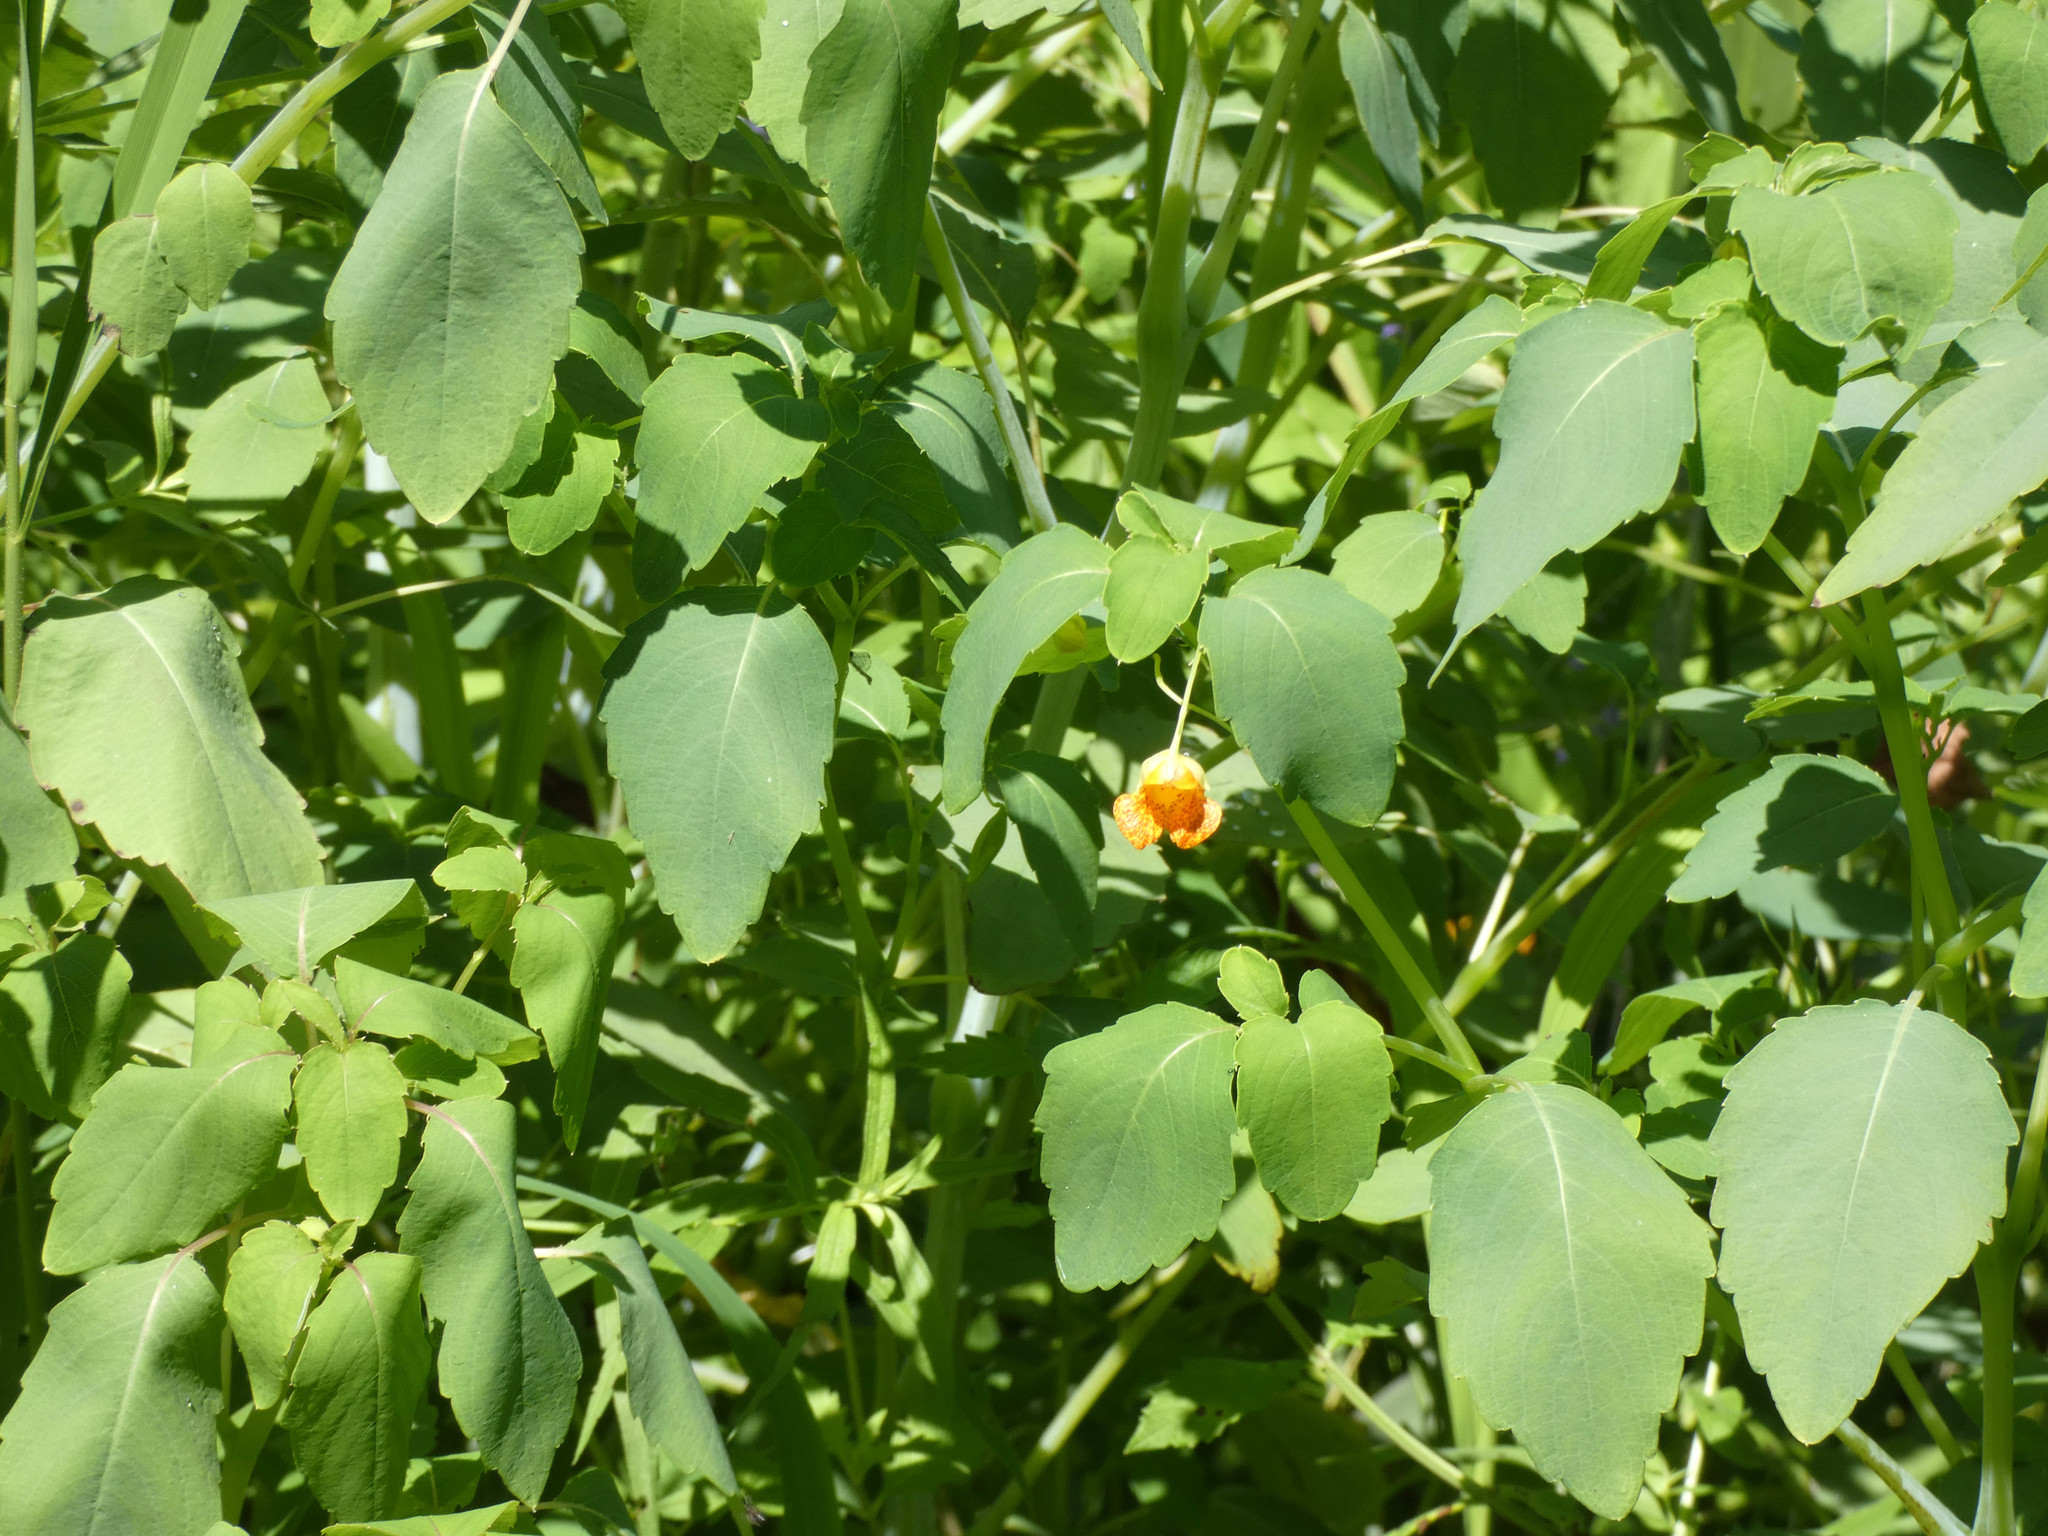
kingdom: Plantae
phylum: Tracheophyta
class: Magnoliopsida
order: Ericales
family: Balsaminaceae
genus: Impatiens
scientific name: Impatiens capensis
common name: Orange balsam
